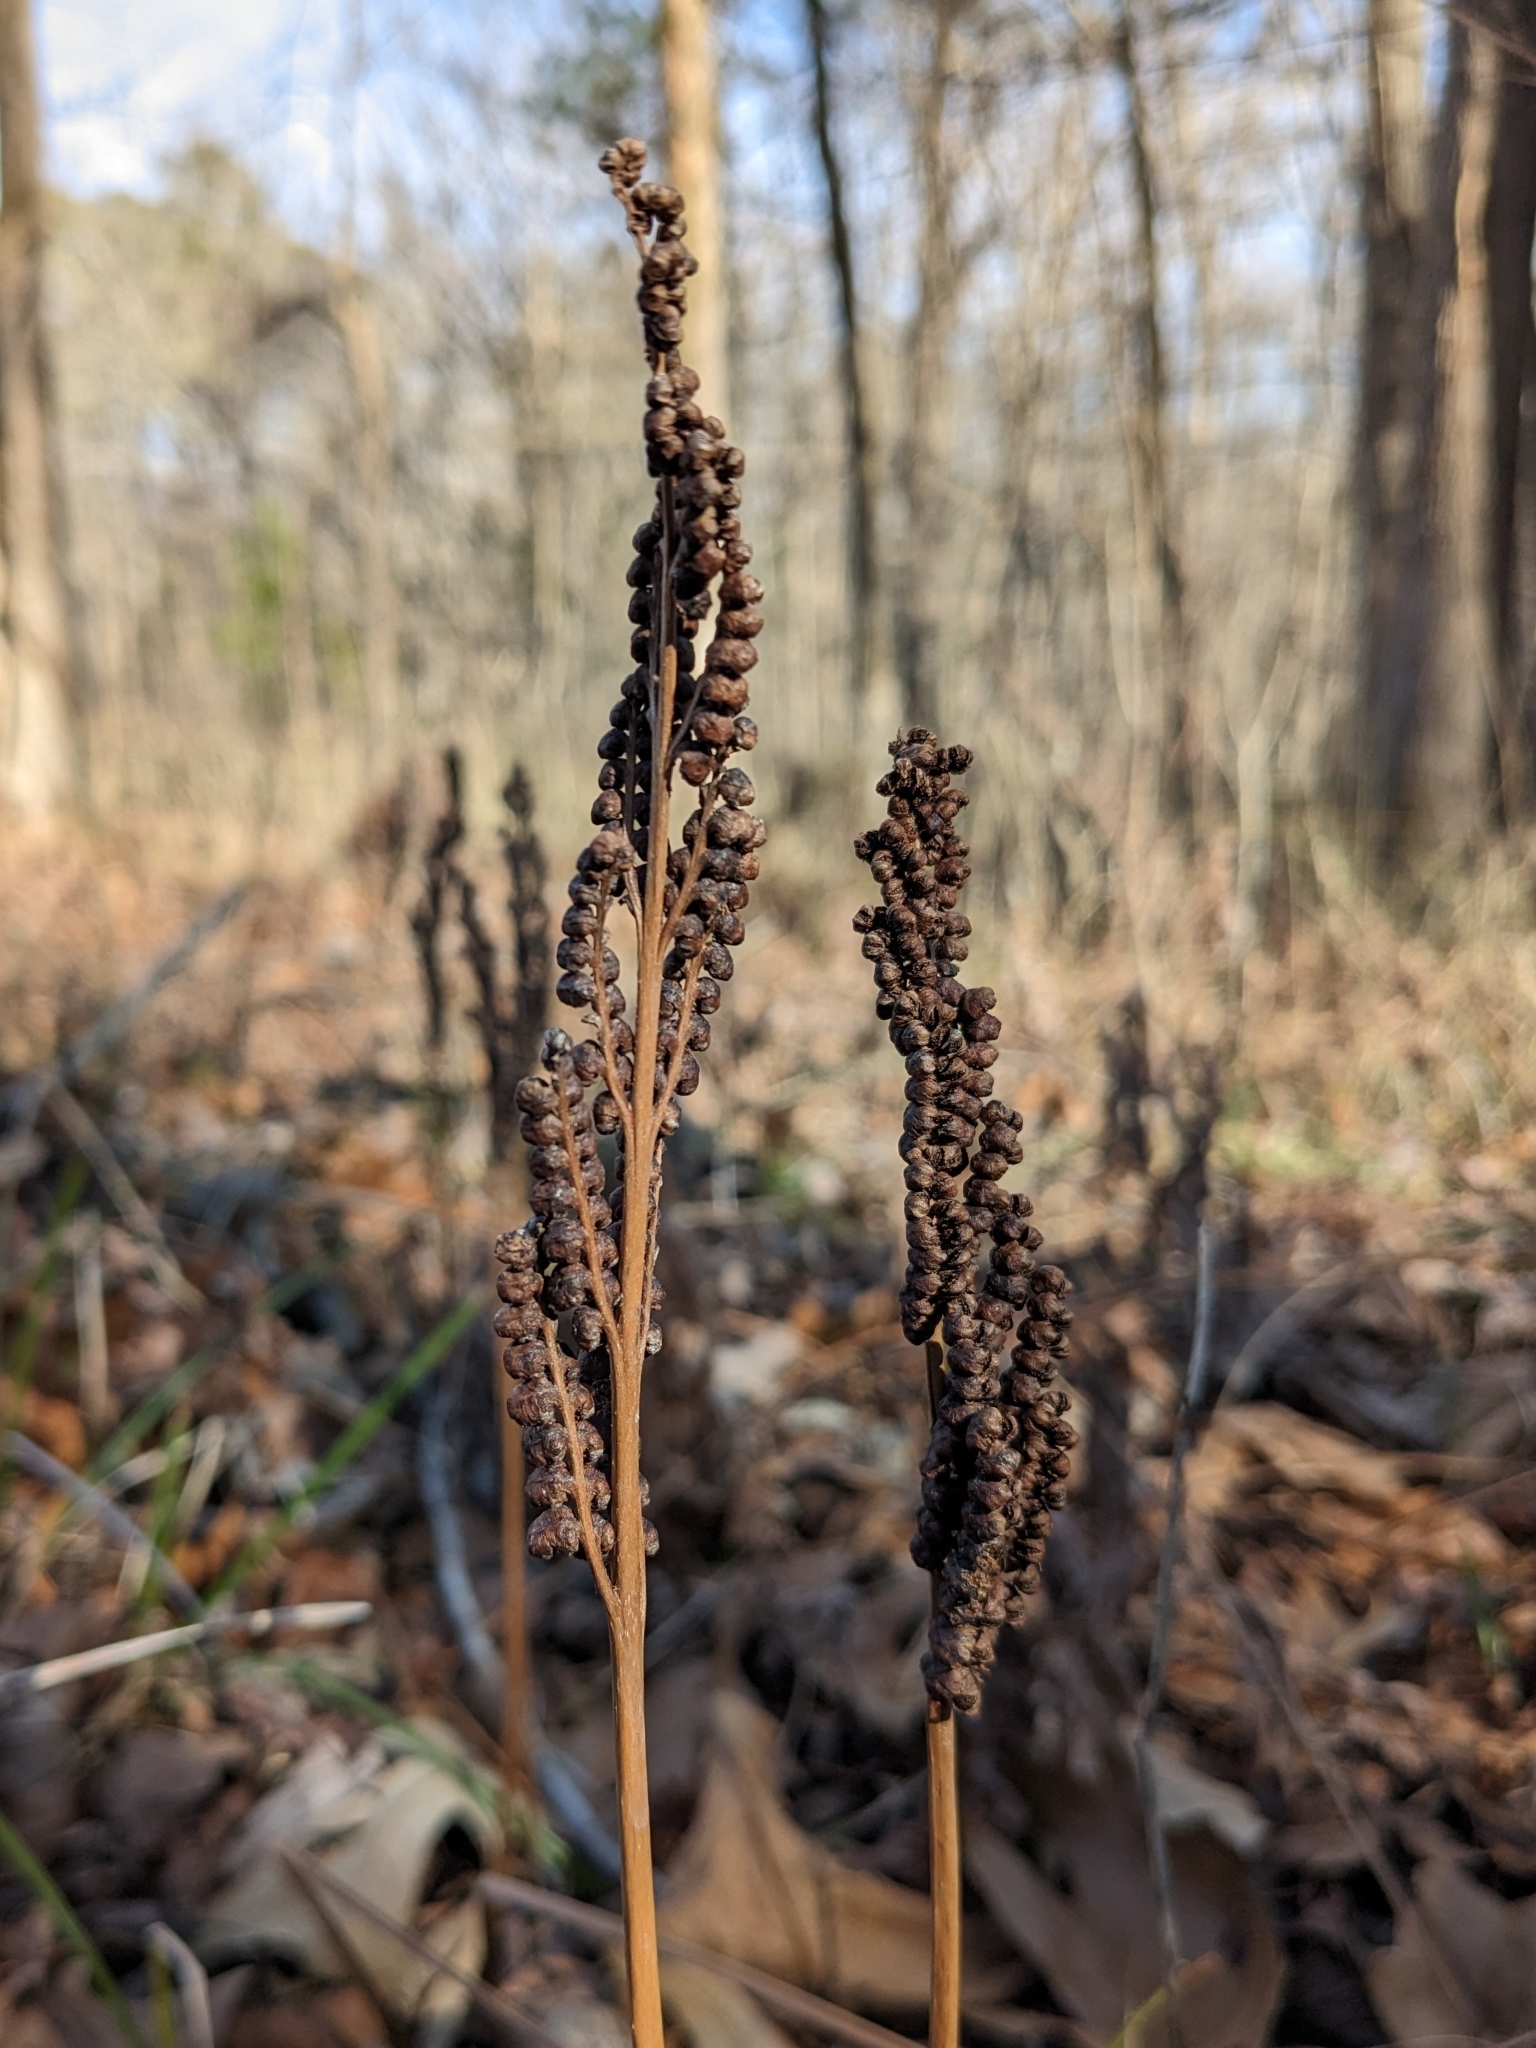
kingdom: Plantae
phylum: Tracheophyta
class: Polypodiopsida
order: Polypodiales
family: Onocleaceae
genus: Onoclea
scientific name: Onoclea sensibilis
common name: Sensitive fern
